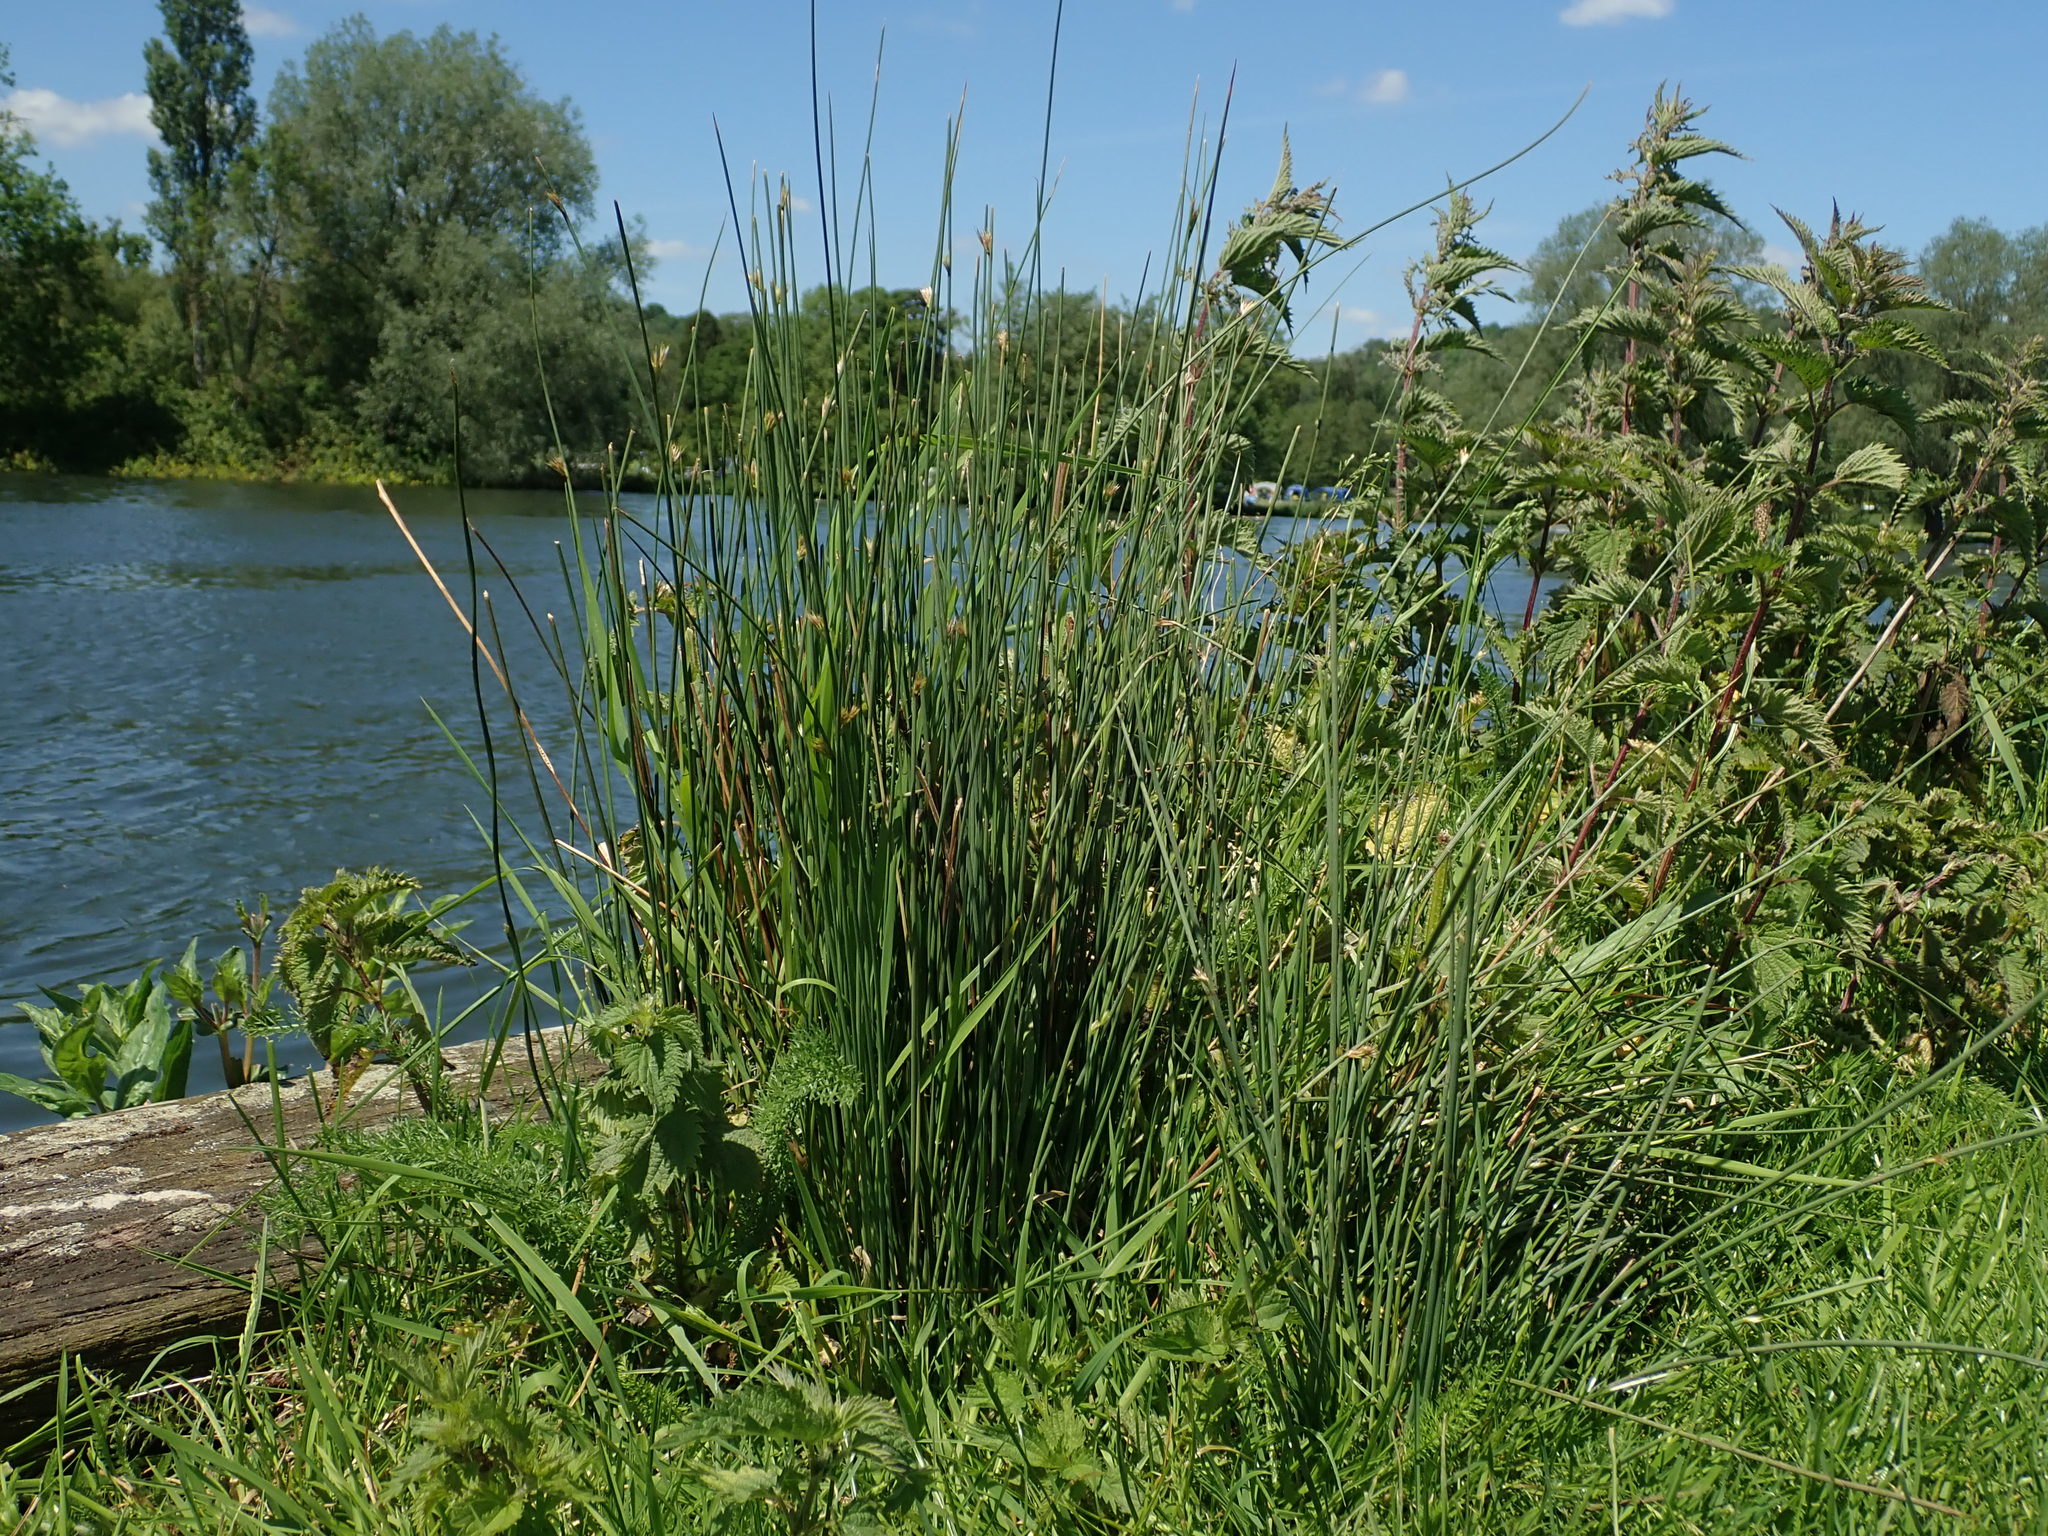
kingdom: Plantae
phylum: Tracheophyta
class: Liliopsida
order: Poales
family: Juncaceae
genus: Juncus
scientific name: Juncus inflexus
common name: Hard rush
